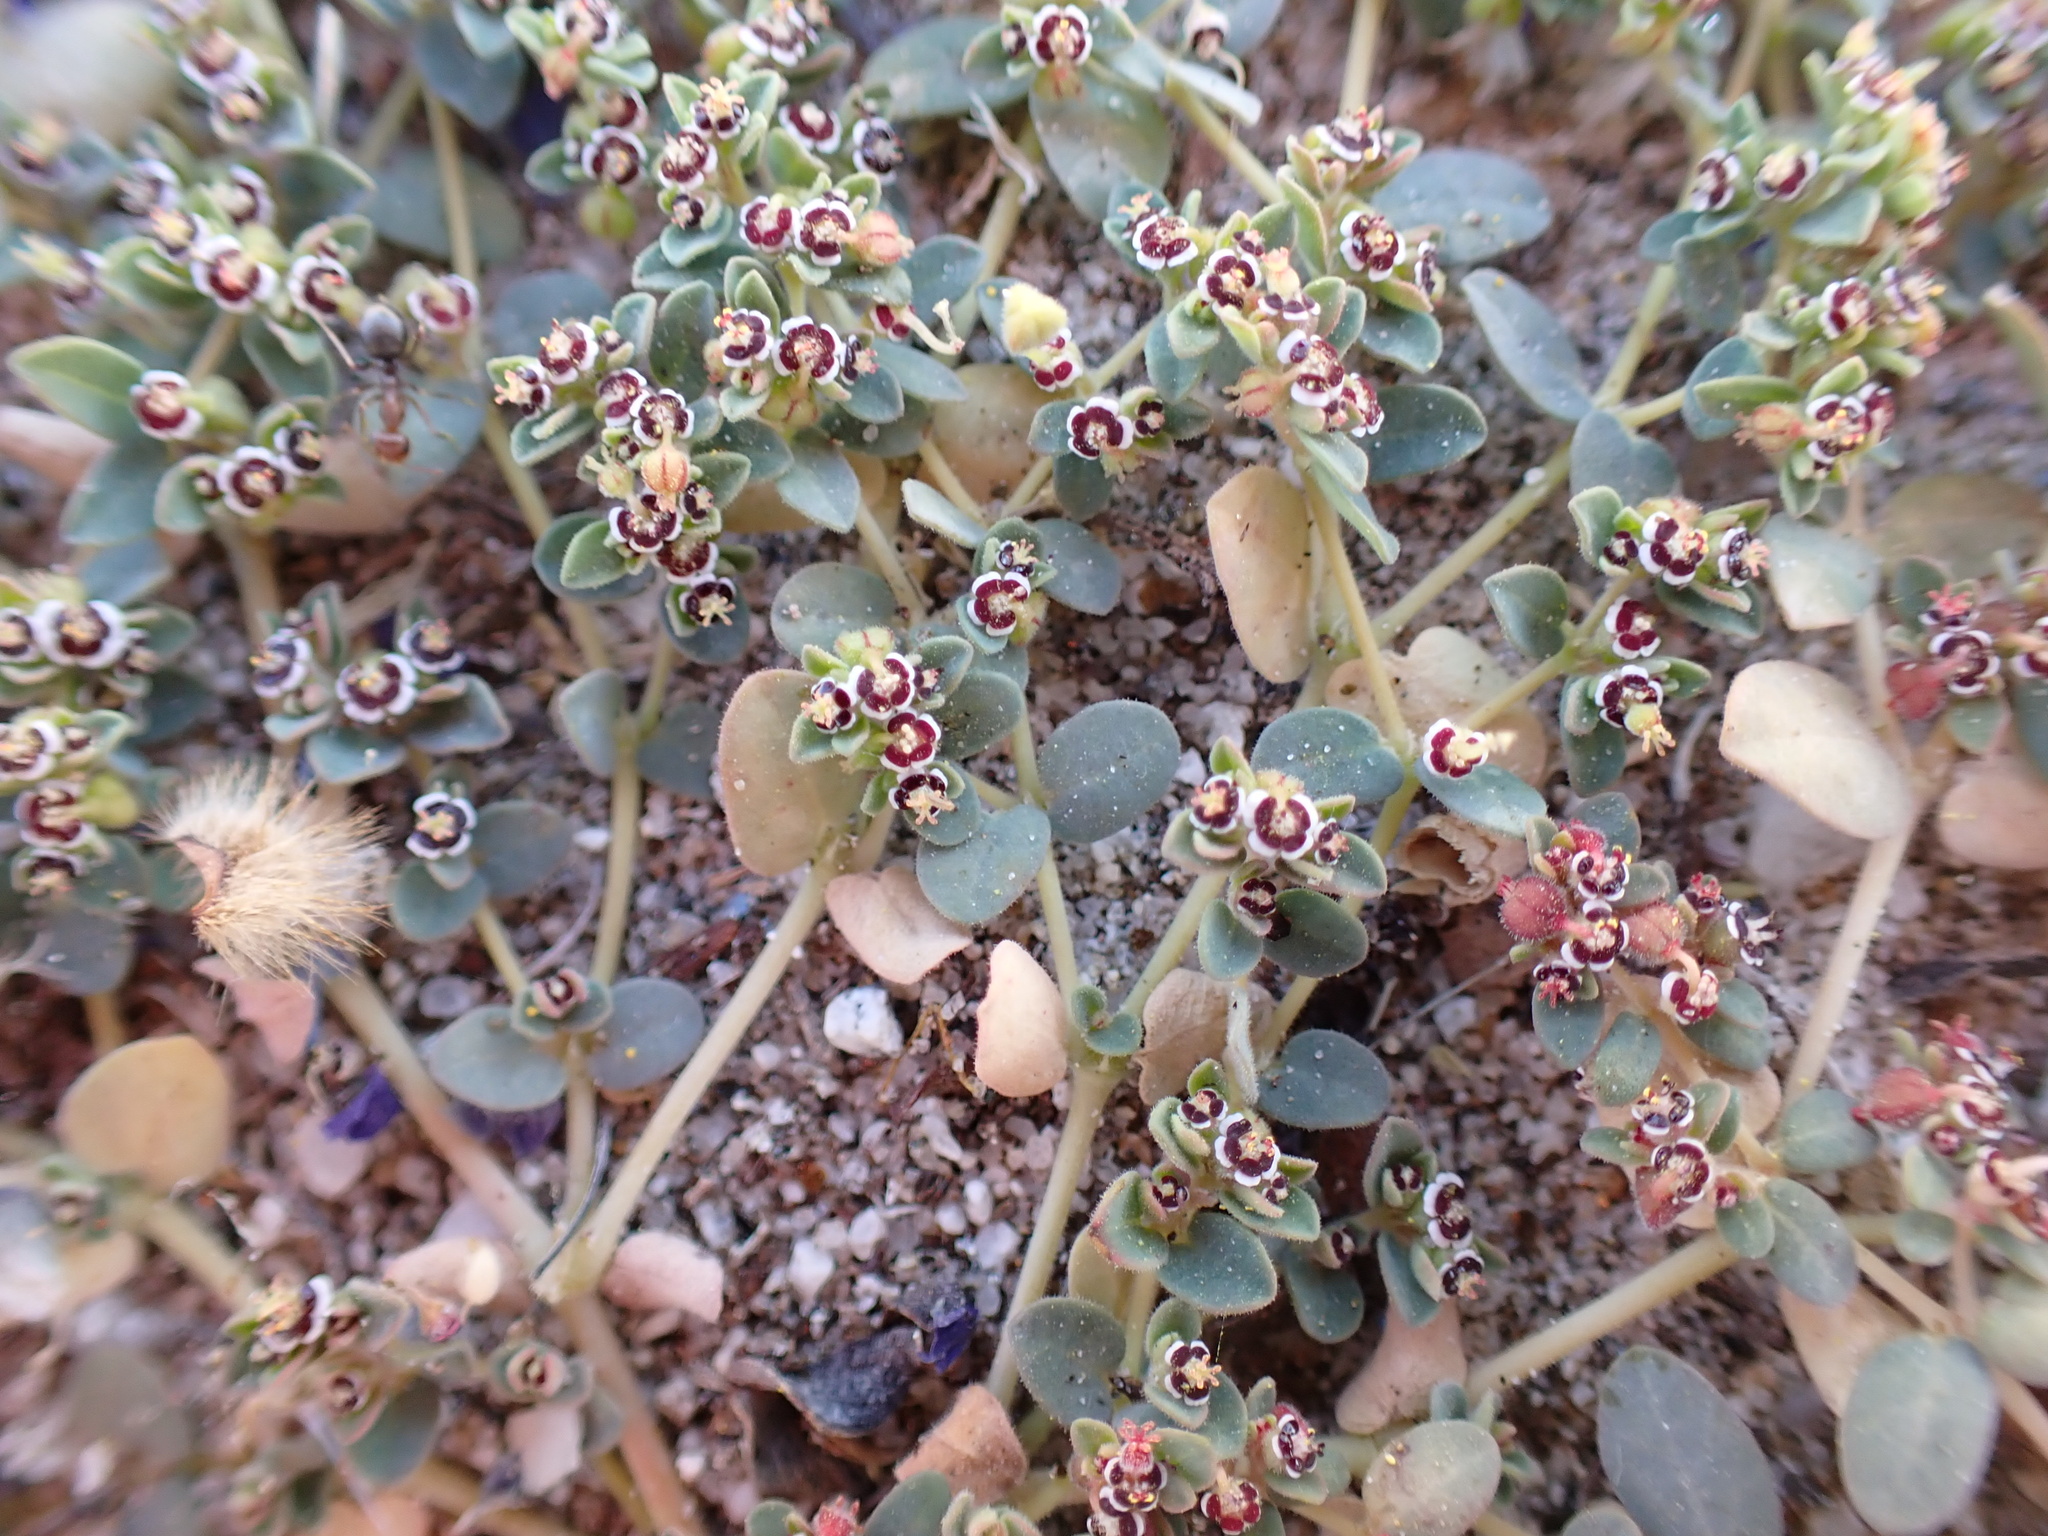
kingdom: Plantae
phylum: Tracheophyta
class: Magnoliopsida
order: Malpighiales
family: Euphorbiaceae
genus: Euphorbia
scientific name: Euphorbia polycarpa
